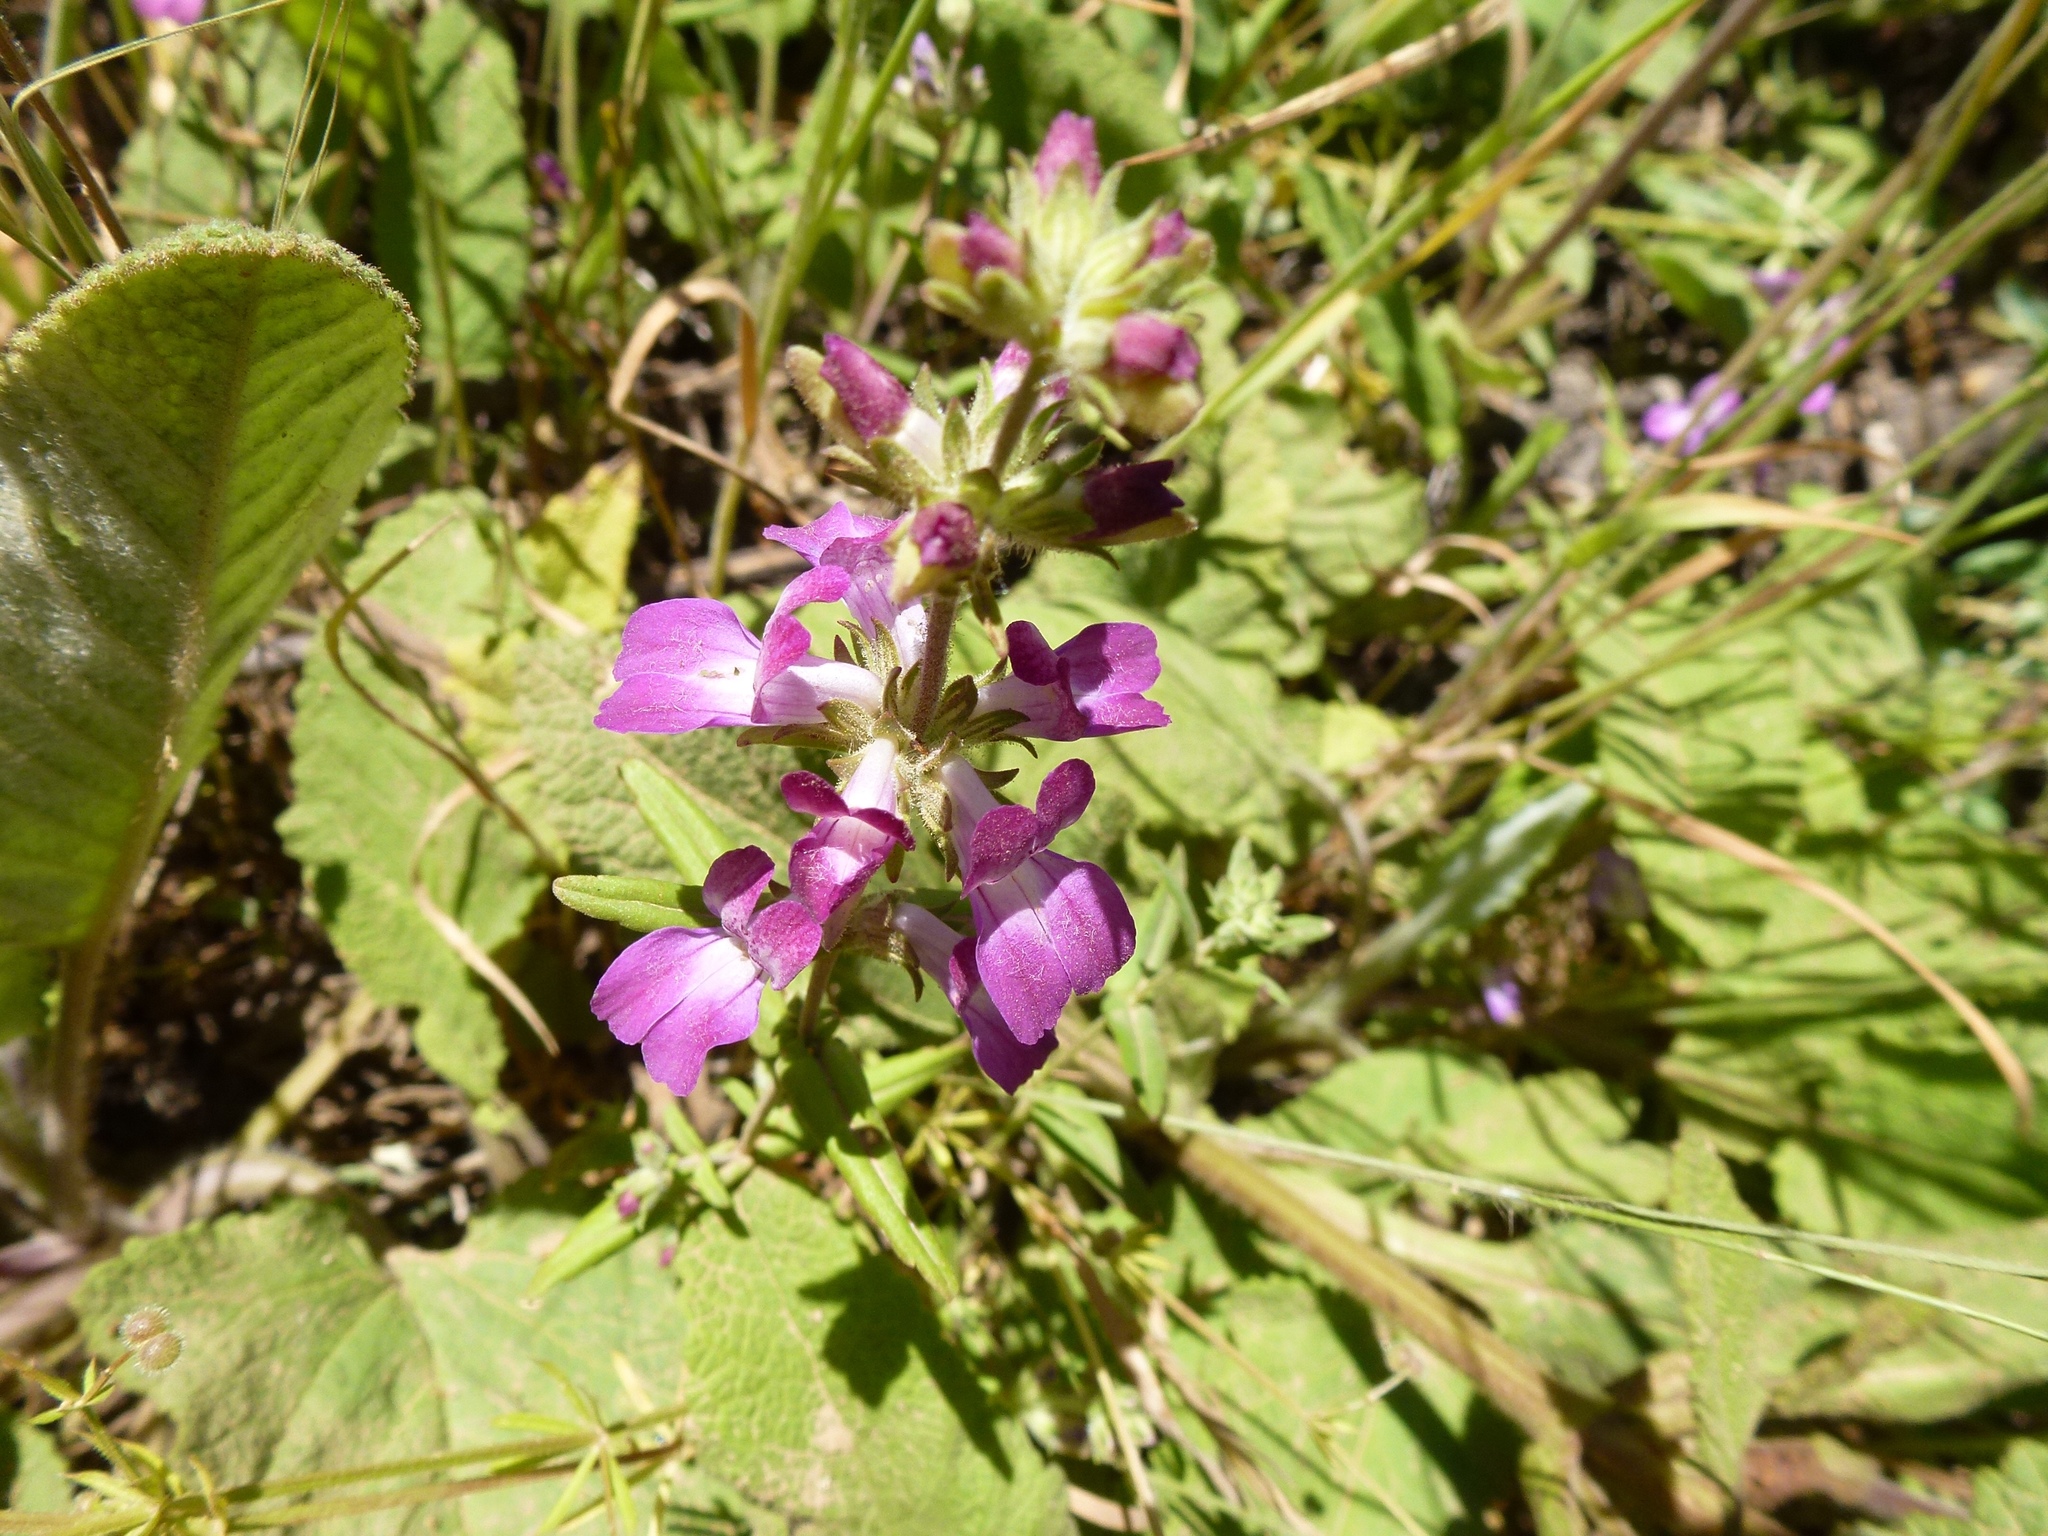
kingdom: Plantae
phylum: Tracheophyta
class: Magnoliopsida
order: Lamiales
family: Plantaginaceae
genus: Collinsia
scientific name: Collinsia heterophylla
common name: Chinese-houses
